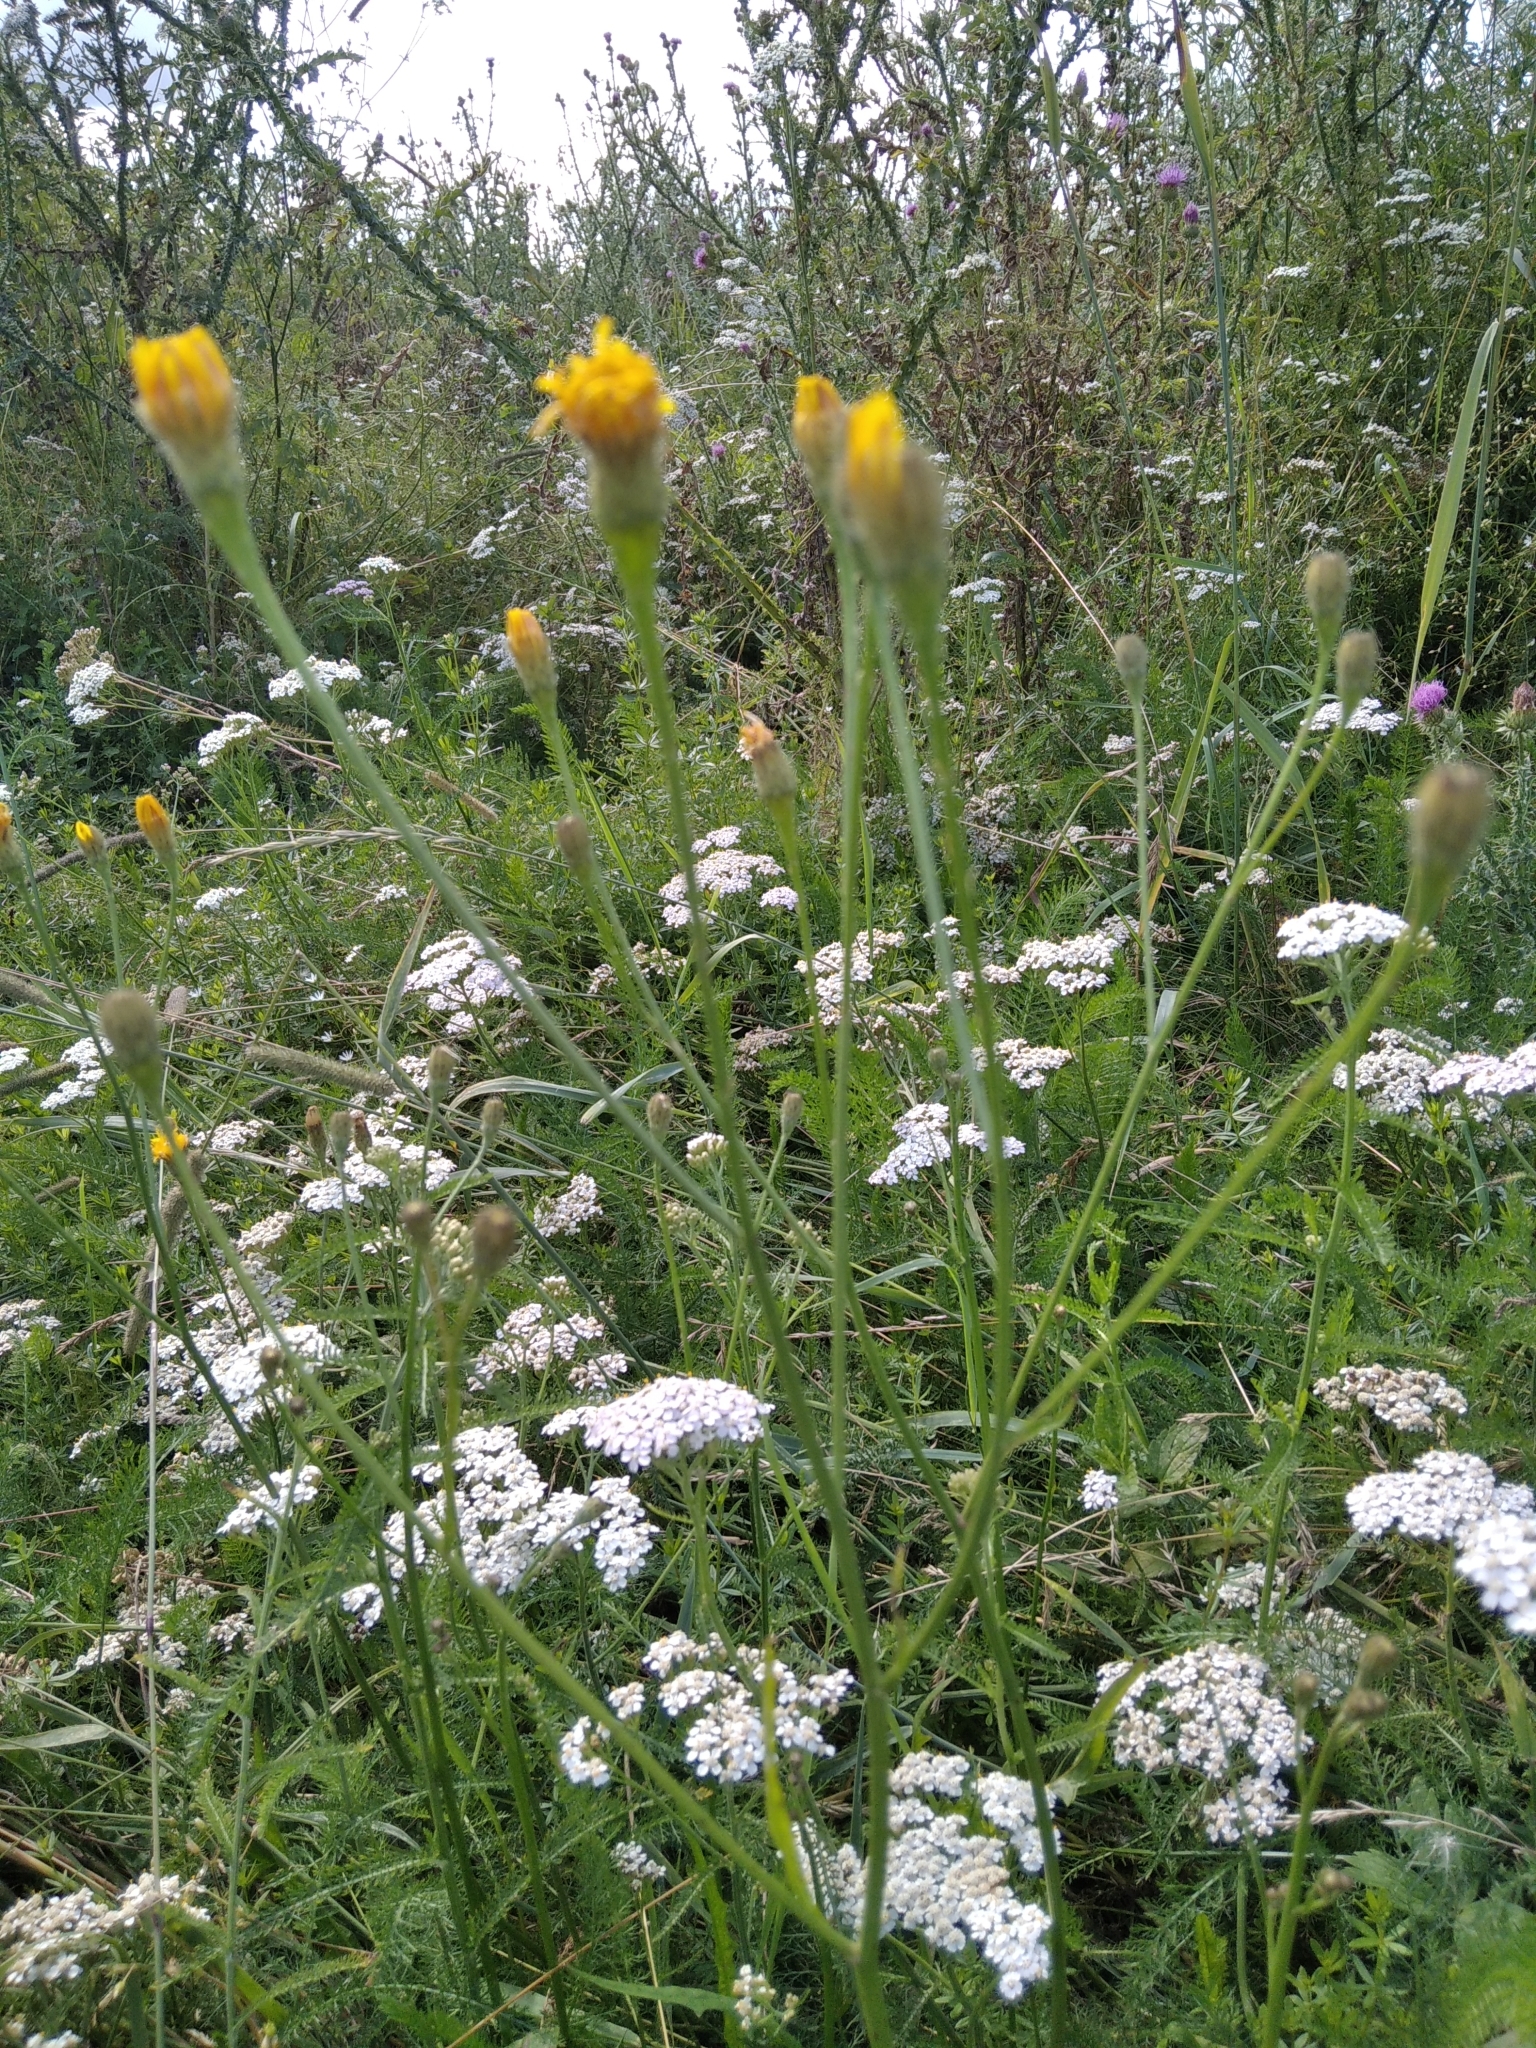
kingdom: Plantae
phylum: Tracheophyta
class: Magnoliopsida
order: Asterales
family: Asteraceae
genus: Scorzoneroides
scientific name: Scorzoneroides autumnalis
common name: Autumn hawkbit
